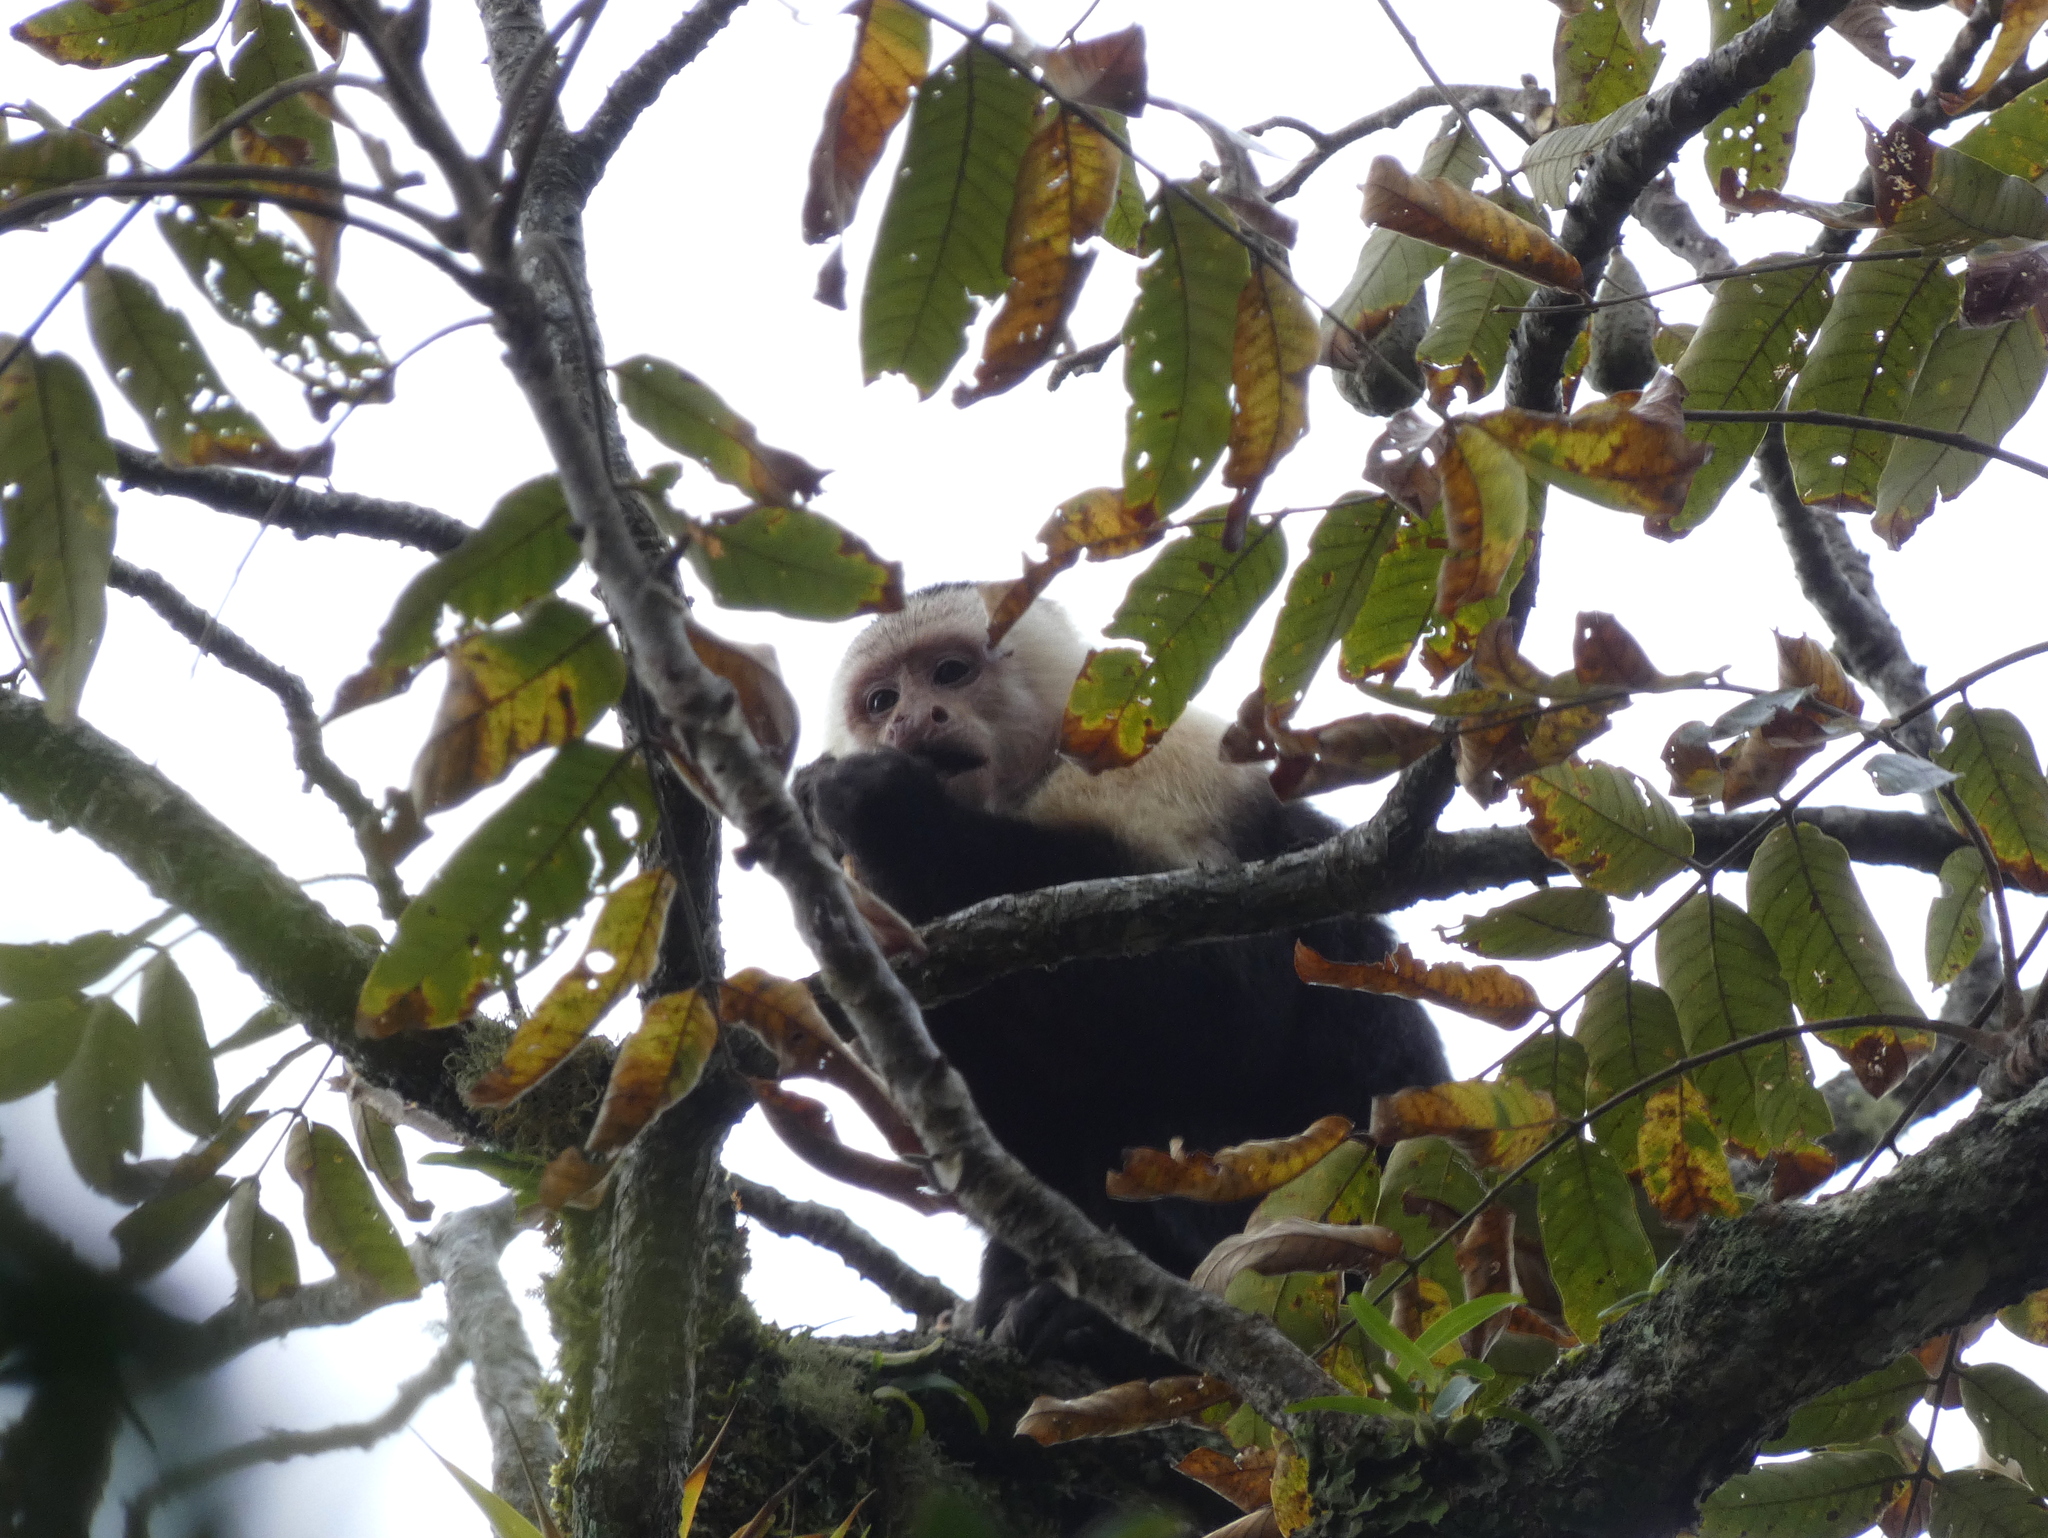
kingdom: Animalia
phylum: Chordata
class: Mammalia
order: Primates
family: Cebidae
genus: Cebus
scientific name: Cebus imitator
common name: Panamanian white-faced capuchin
